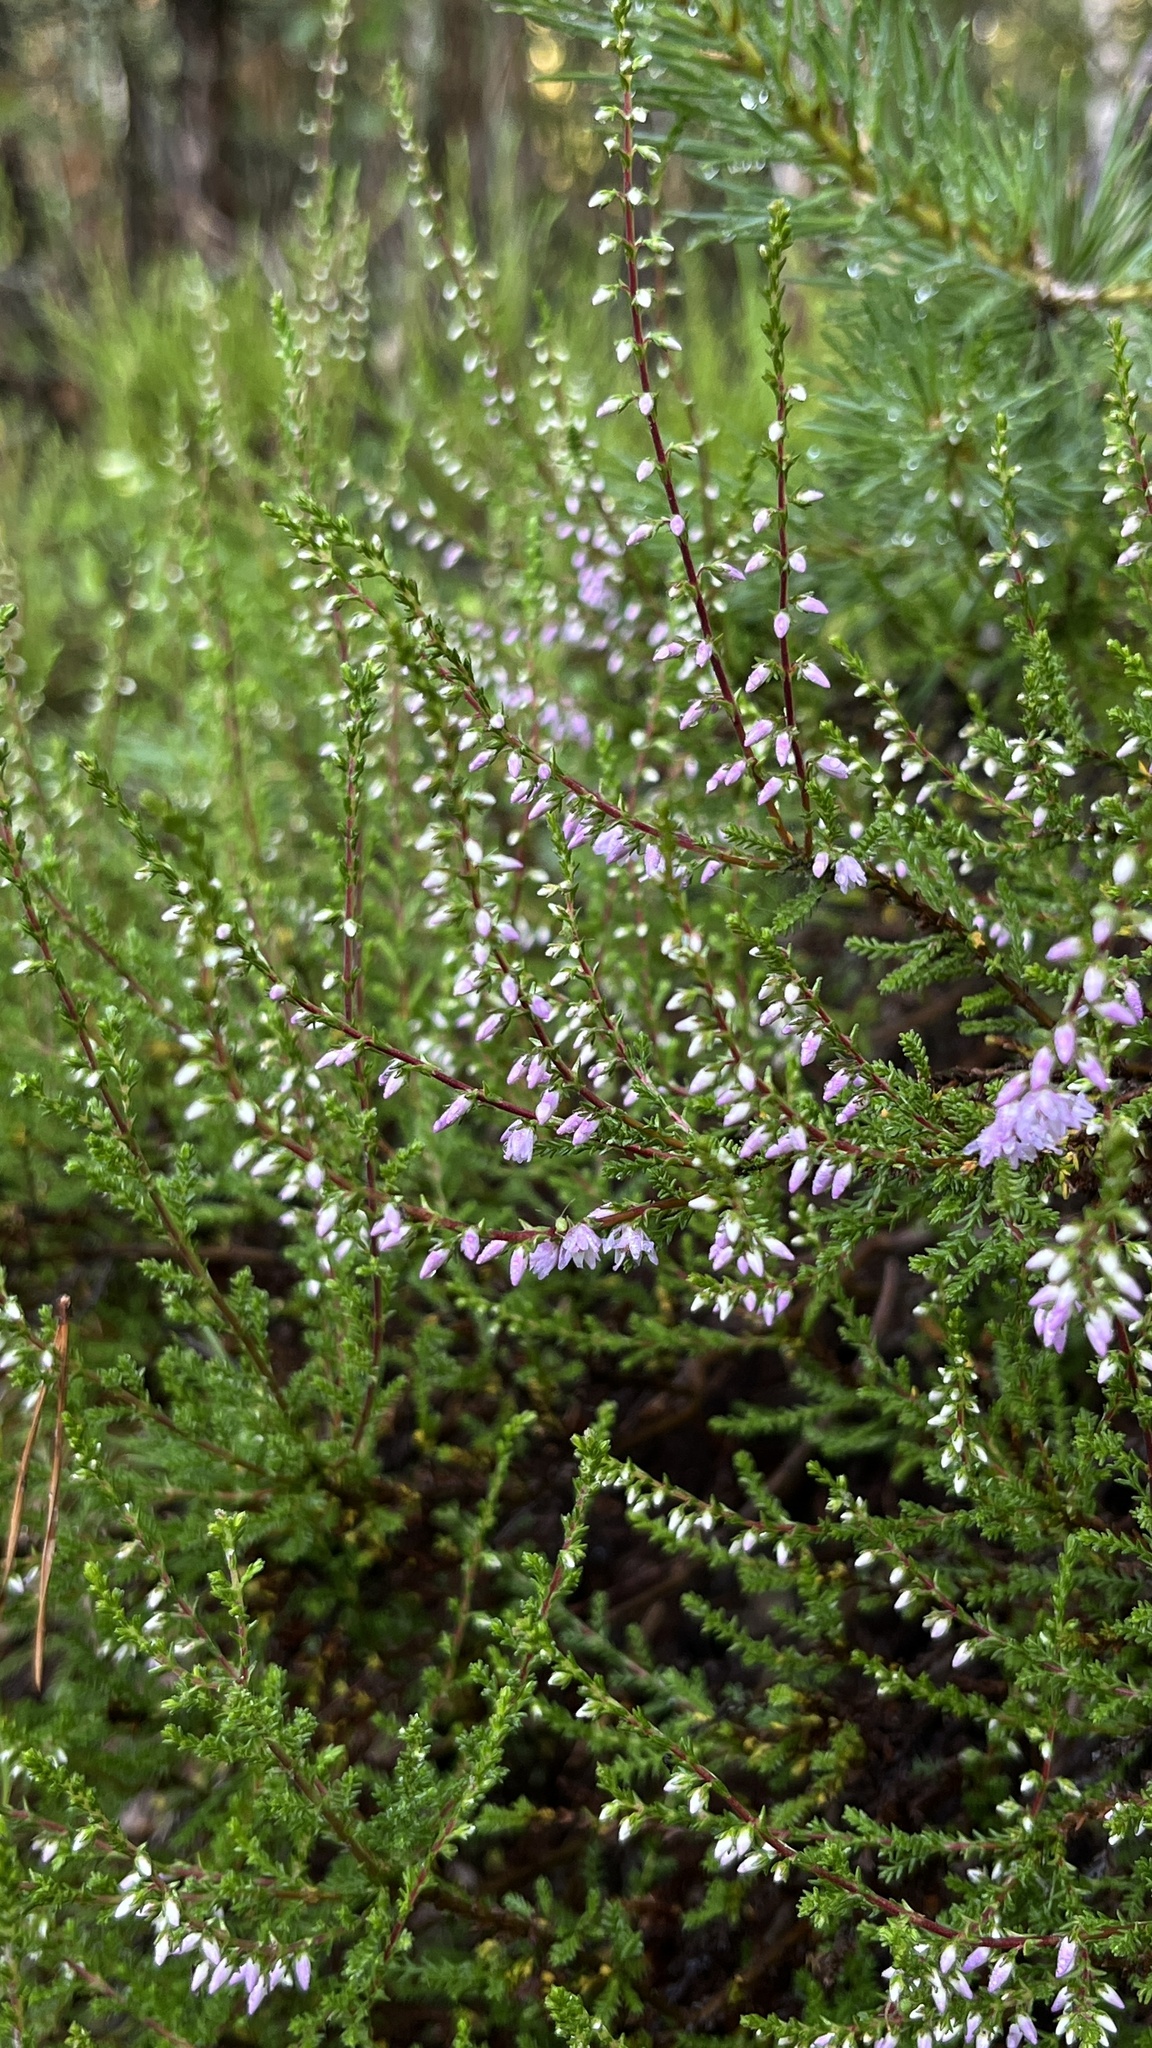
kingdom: Plantae
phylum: Tracheophyta
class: Magnoliopsida
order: Ericales
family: Ericaceae
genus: Calluna
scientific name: Calluna vulgaris
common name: Heather
